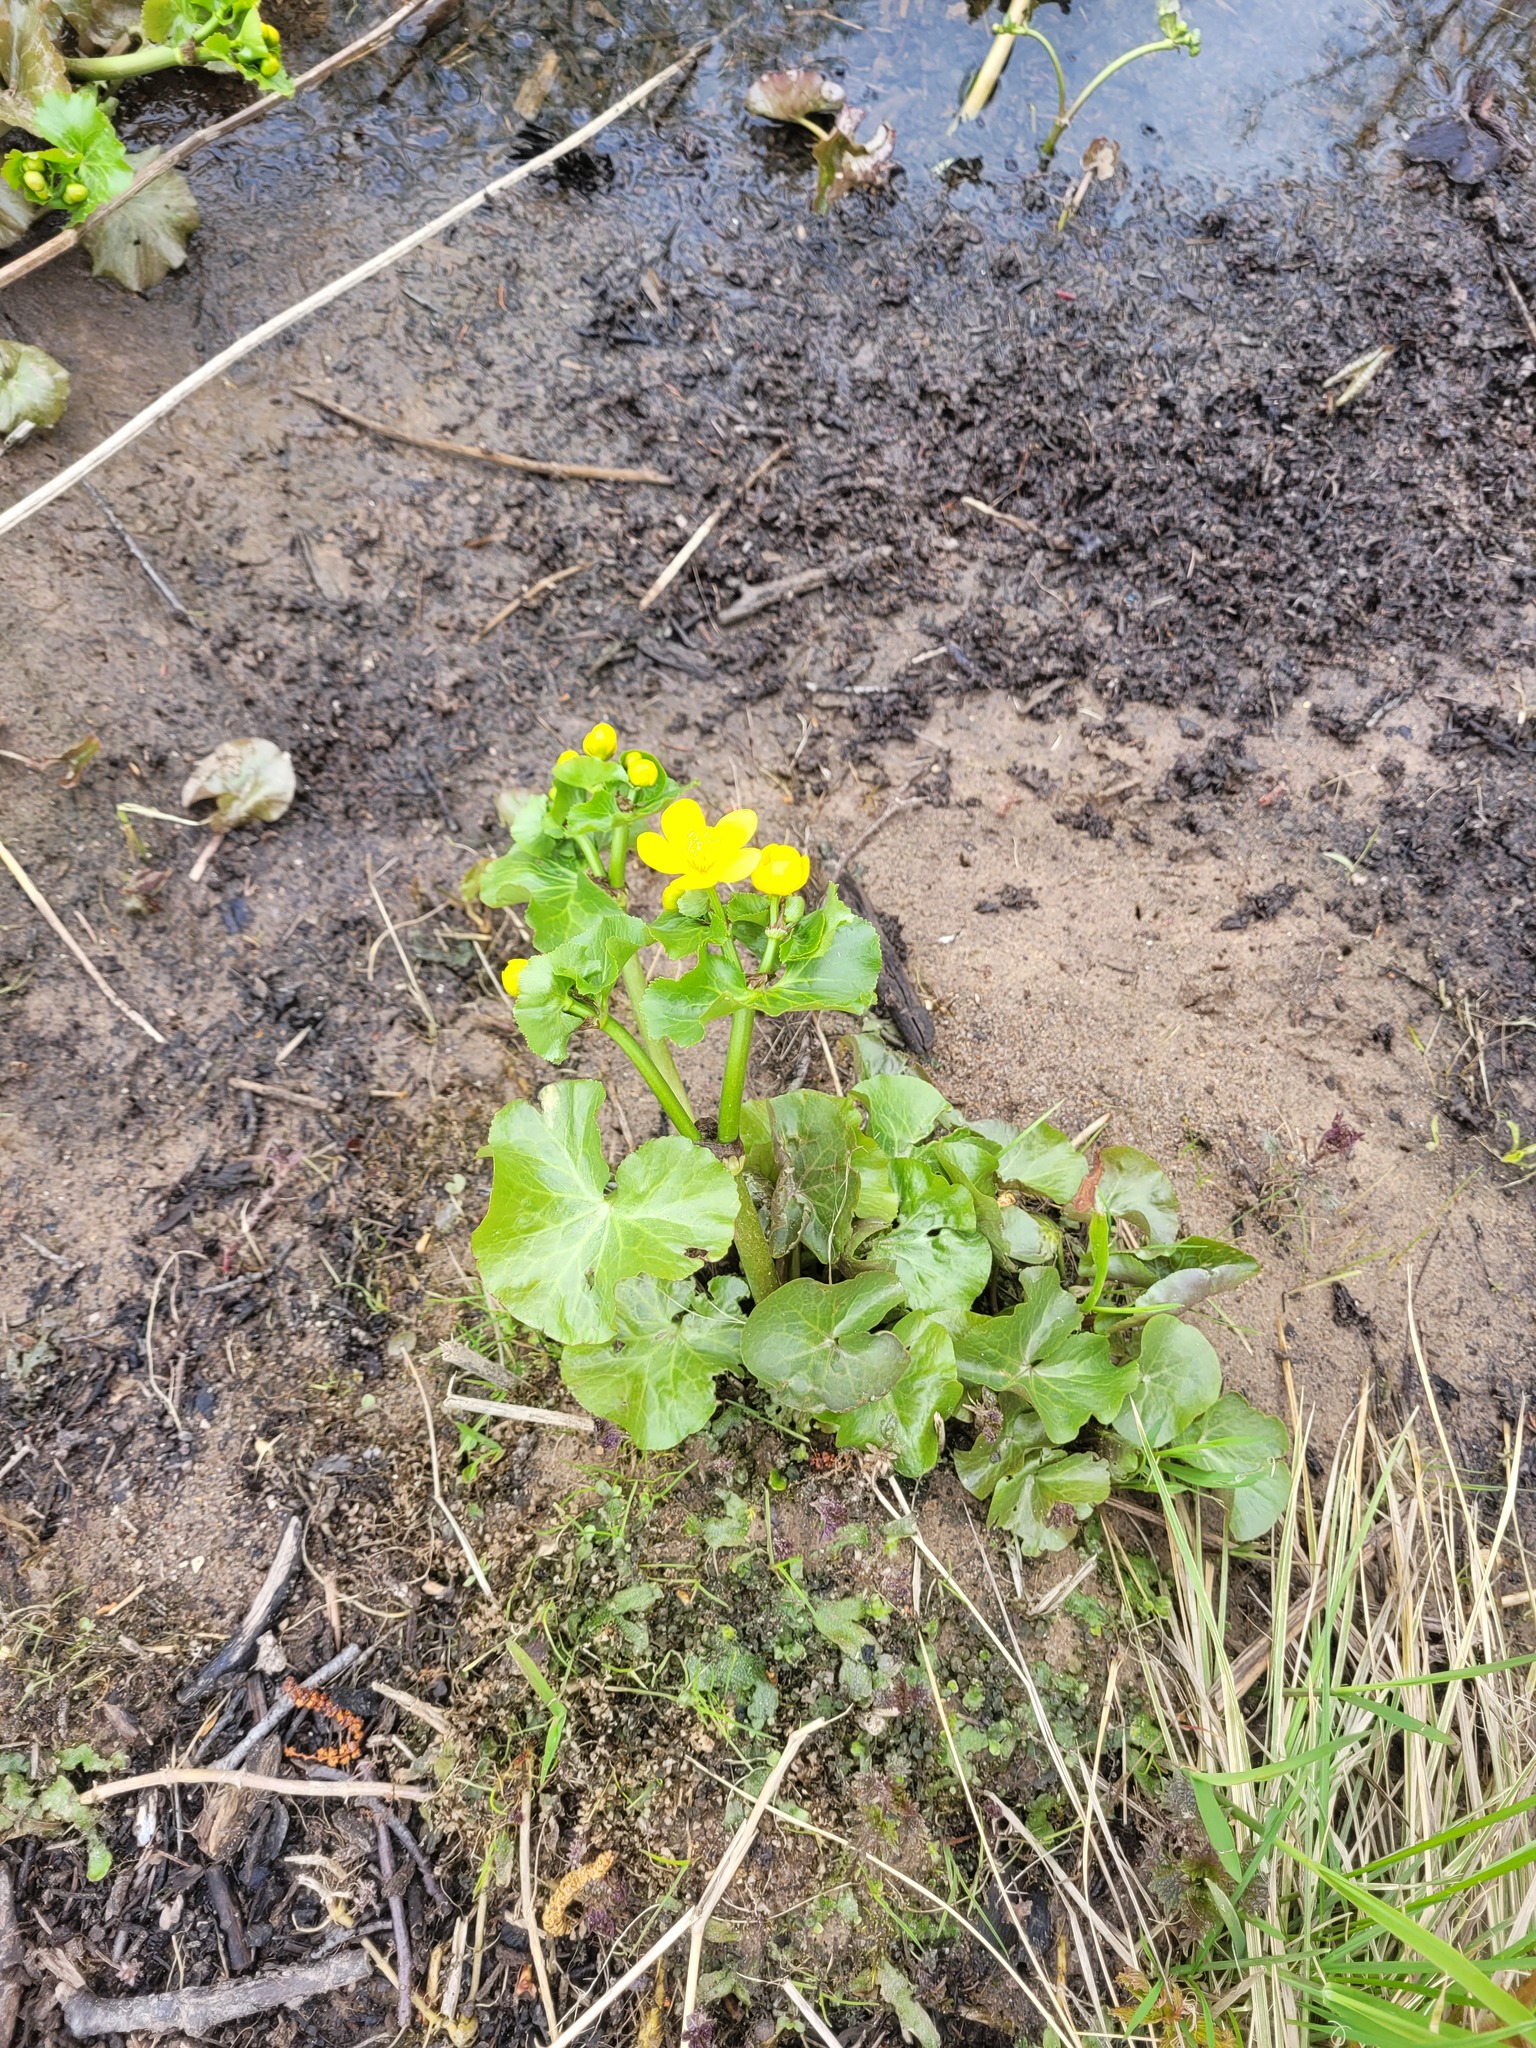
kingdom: Plantae
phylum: Tracheophyta
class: Magnoliopsida
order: Ranunculales
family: Ranunculaceae
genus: Caltha
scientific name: Caltha palustris
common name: Marsh marigold
